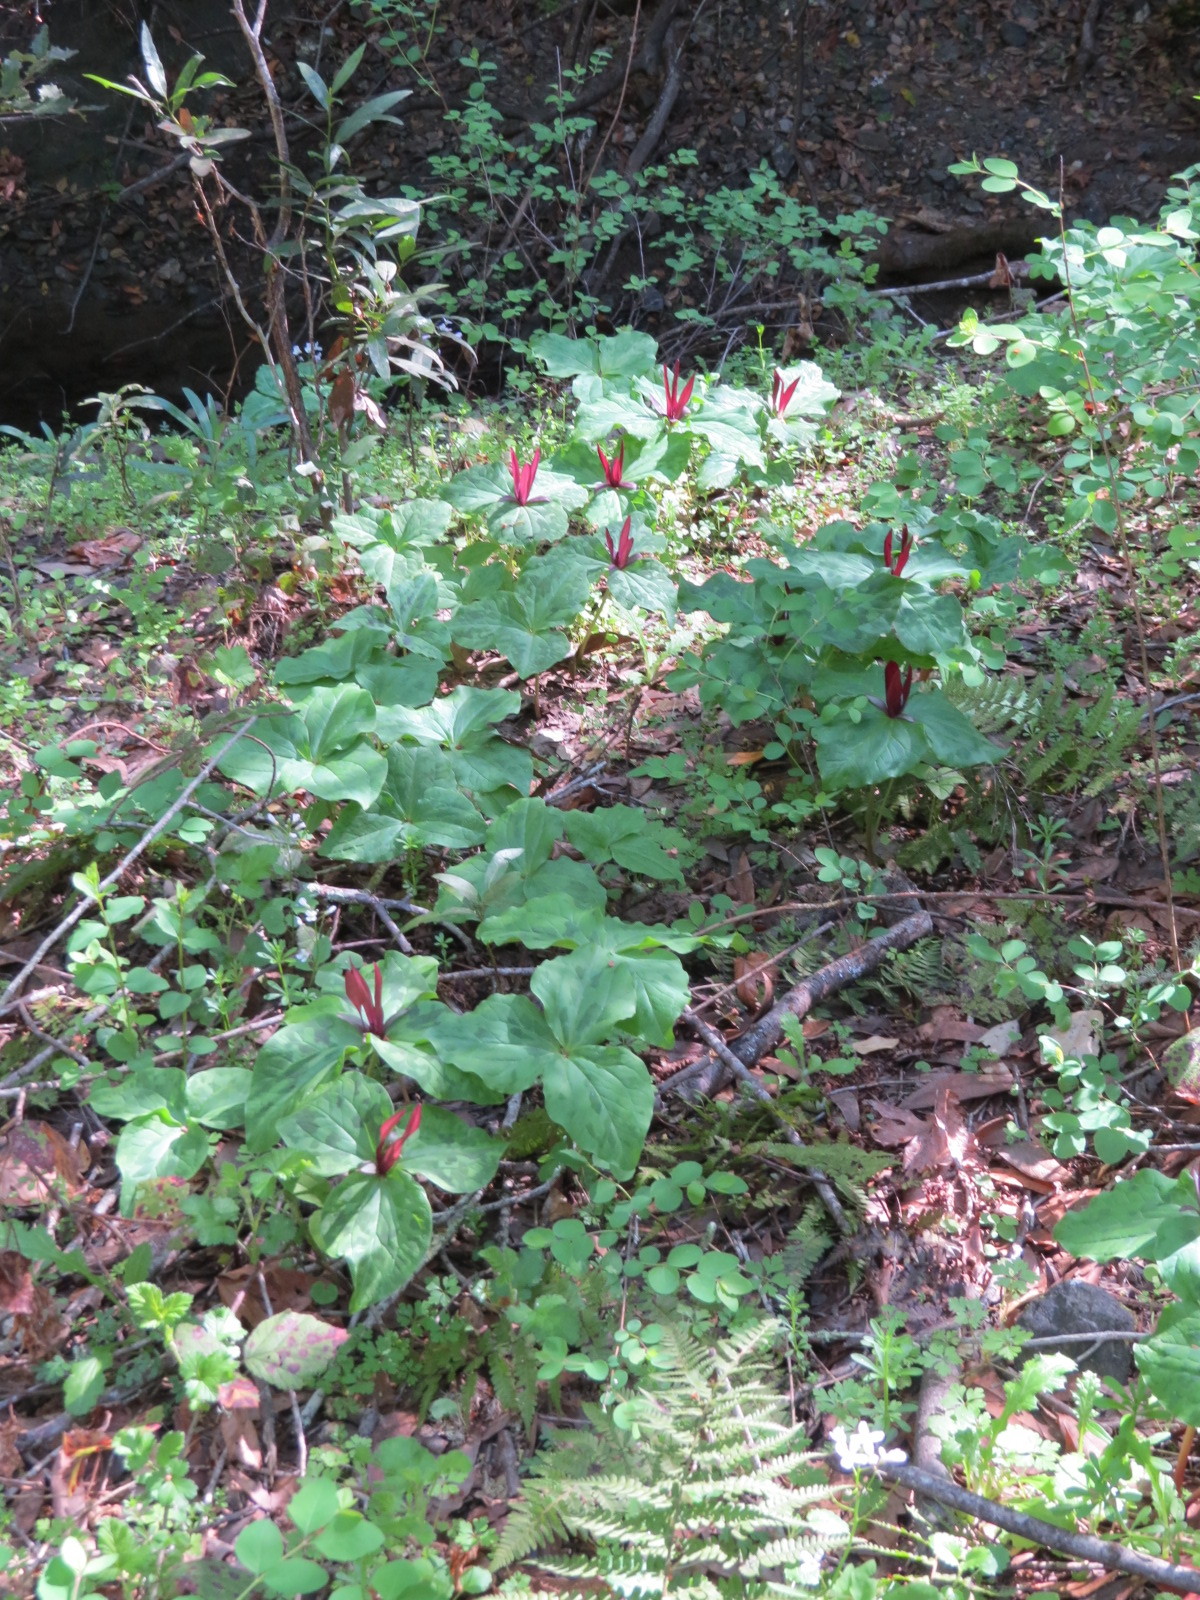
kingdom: Plantae
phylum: Tracheophyta
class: Liliopsida
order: Liliales
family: Melanthiaceae
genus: Trillium
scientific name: Trillium chloropetalum
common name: Giant trillium
